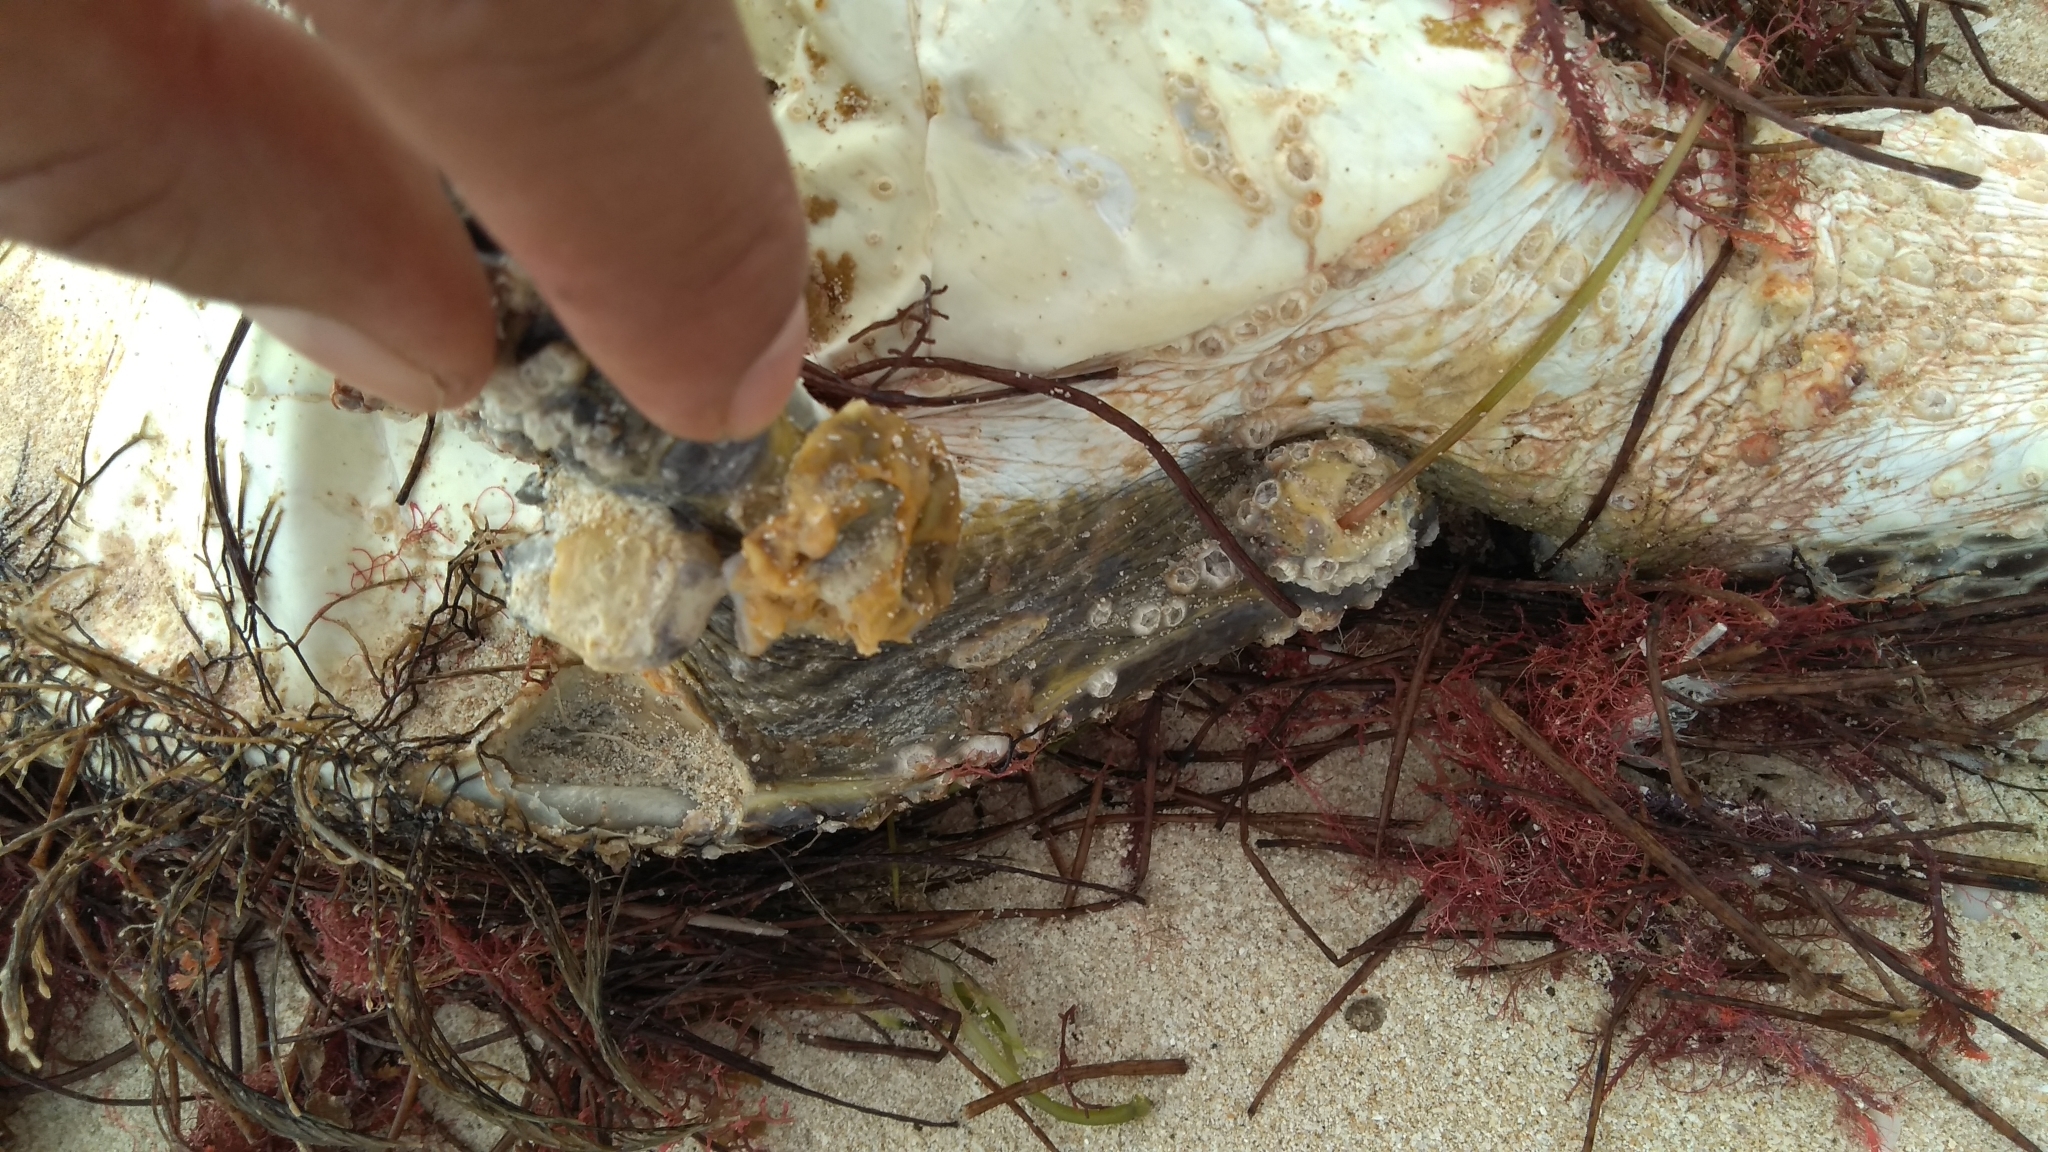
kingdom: Animalia
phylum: Chordata
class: Testudines
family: Cheloniidae
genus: Chelonia
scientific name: Chelonia mydas
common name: Green turtle
